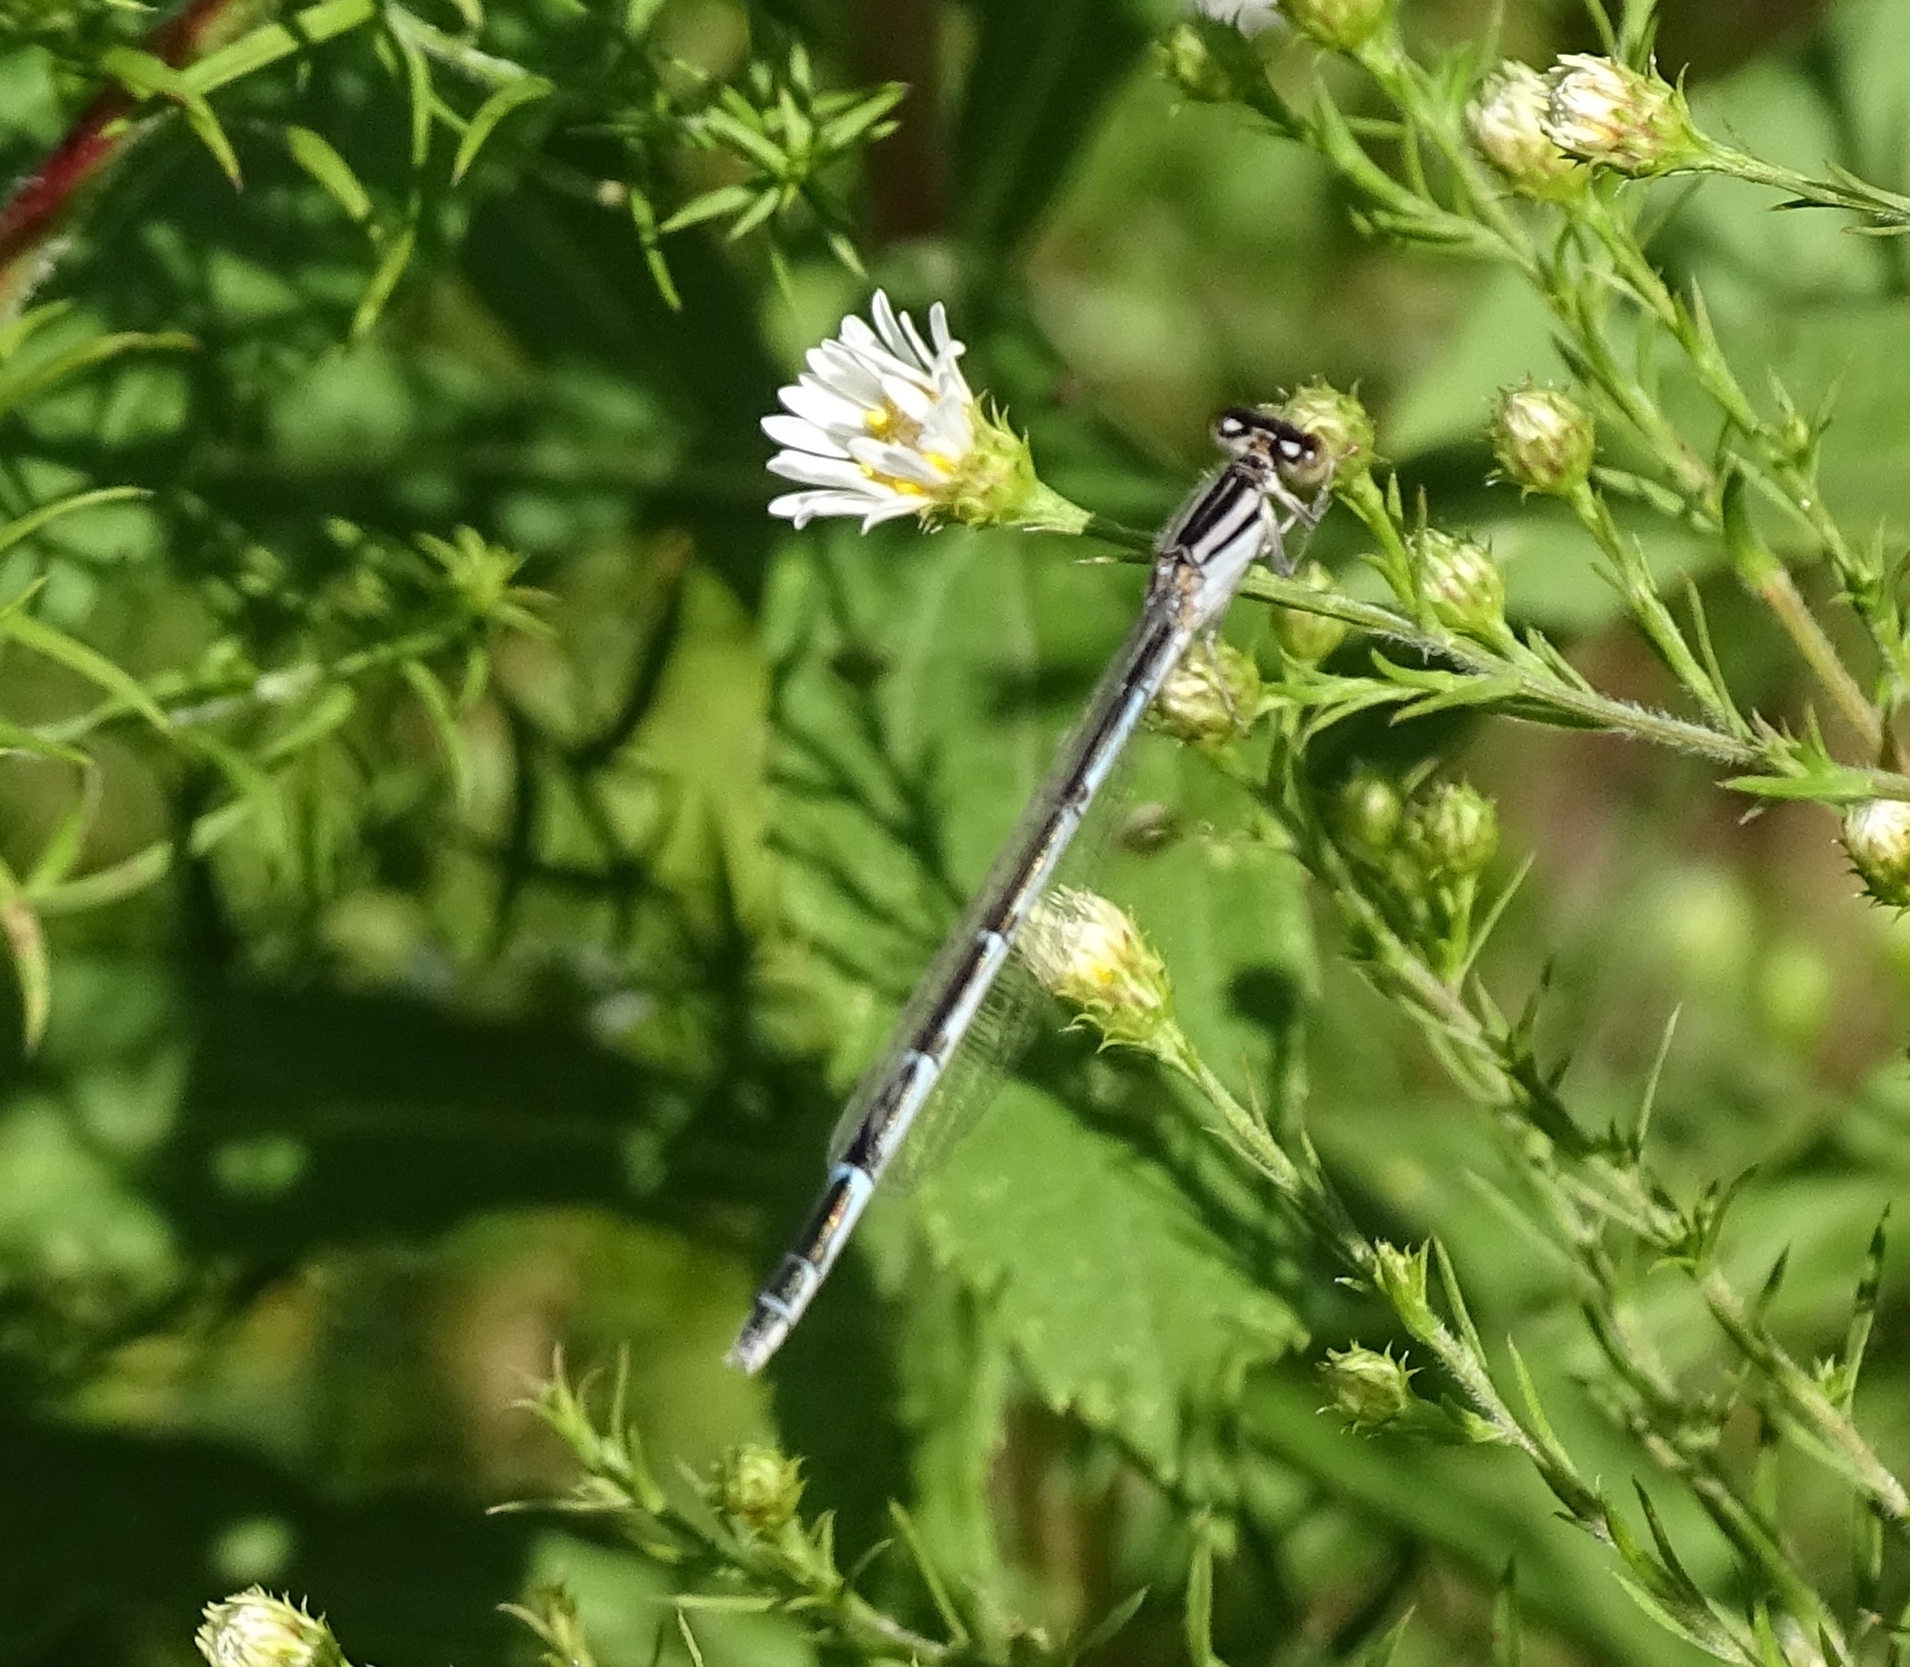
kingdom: Animalia
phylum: Arthropoda
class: Insecta
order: Odonata
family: Coenagrionidae
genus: Enallagma
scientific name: Enallagma
